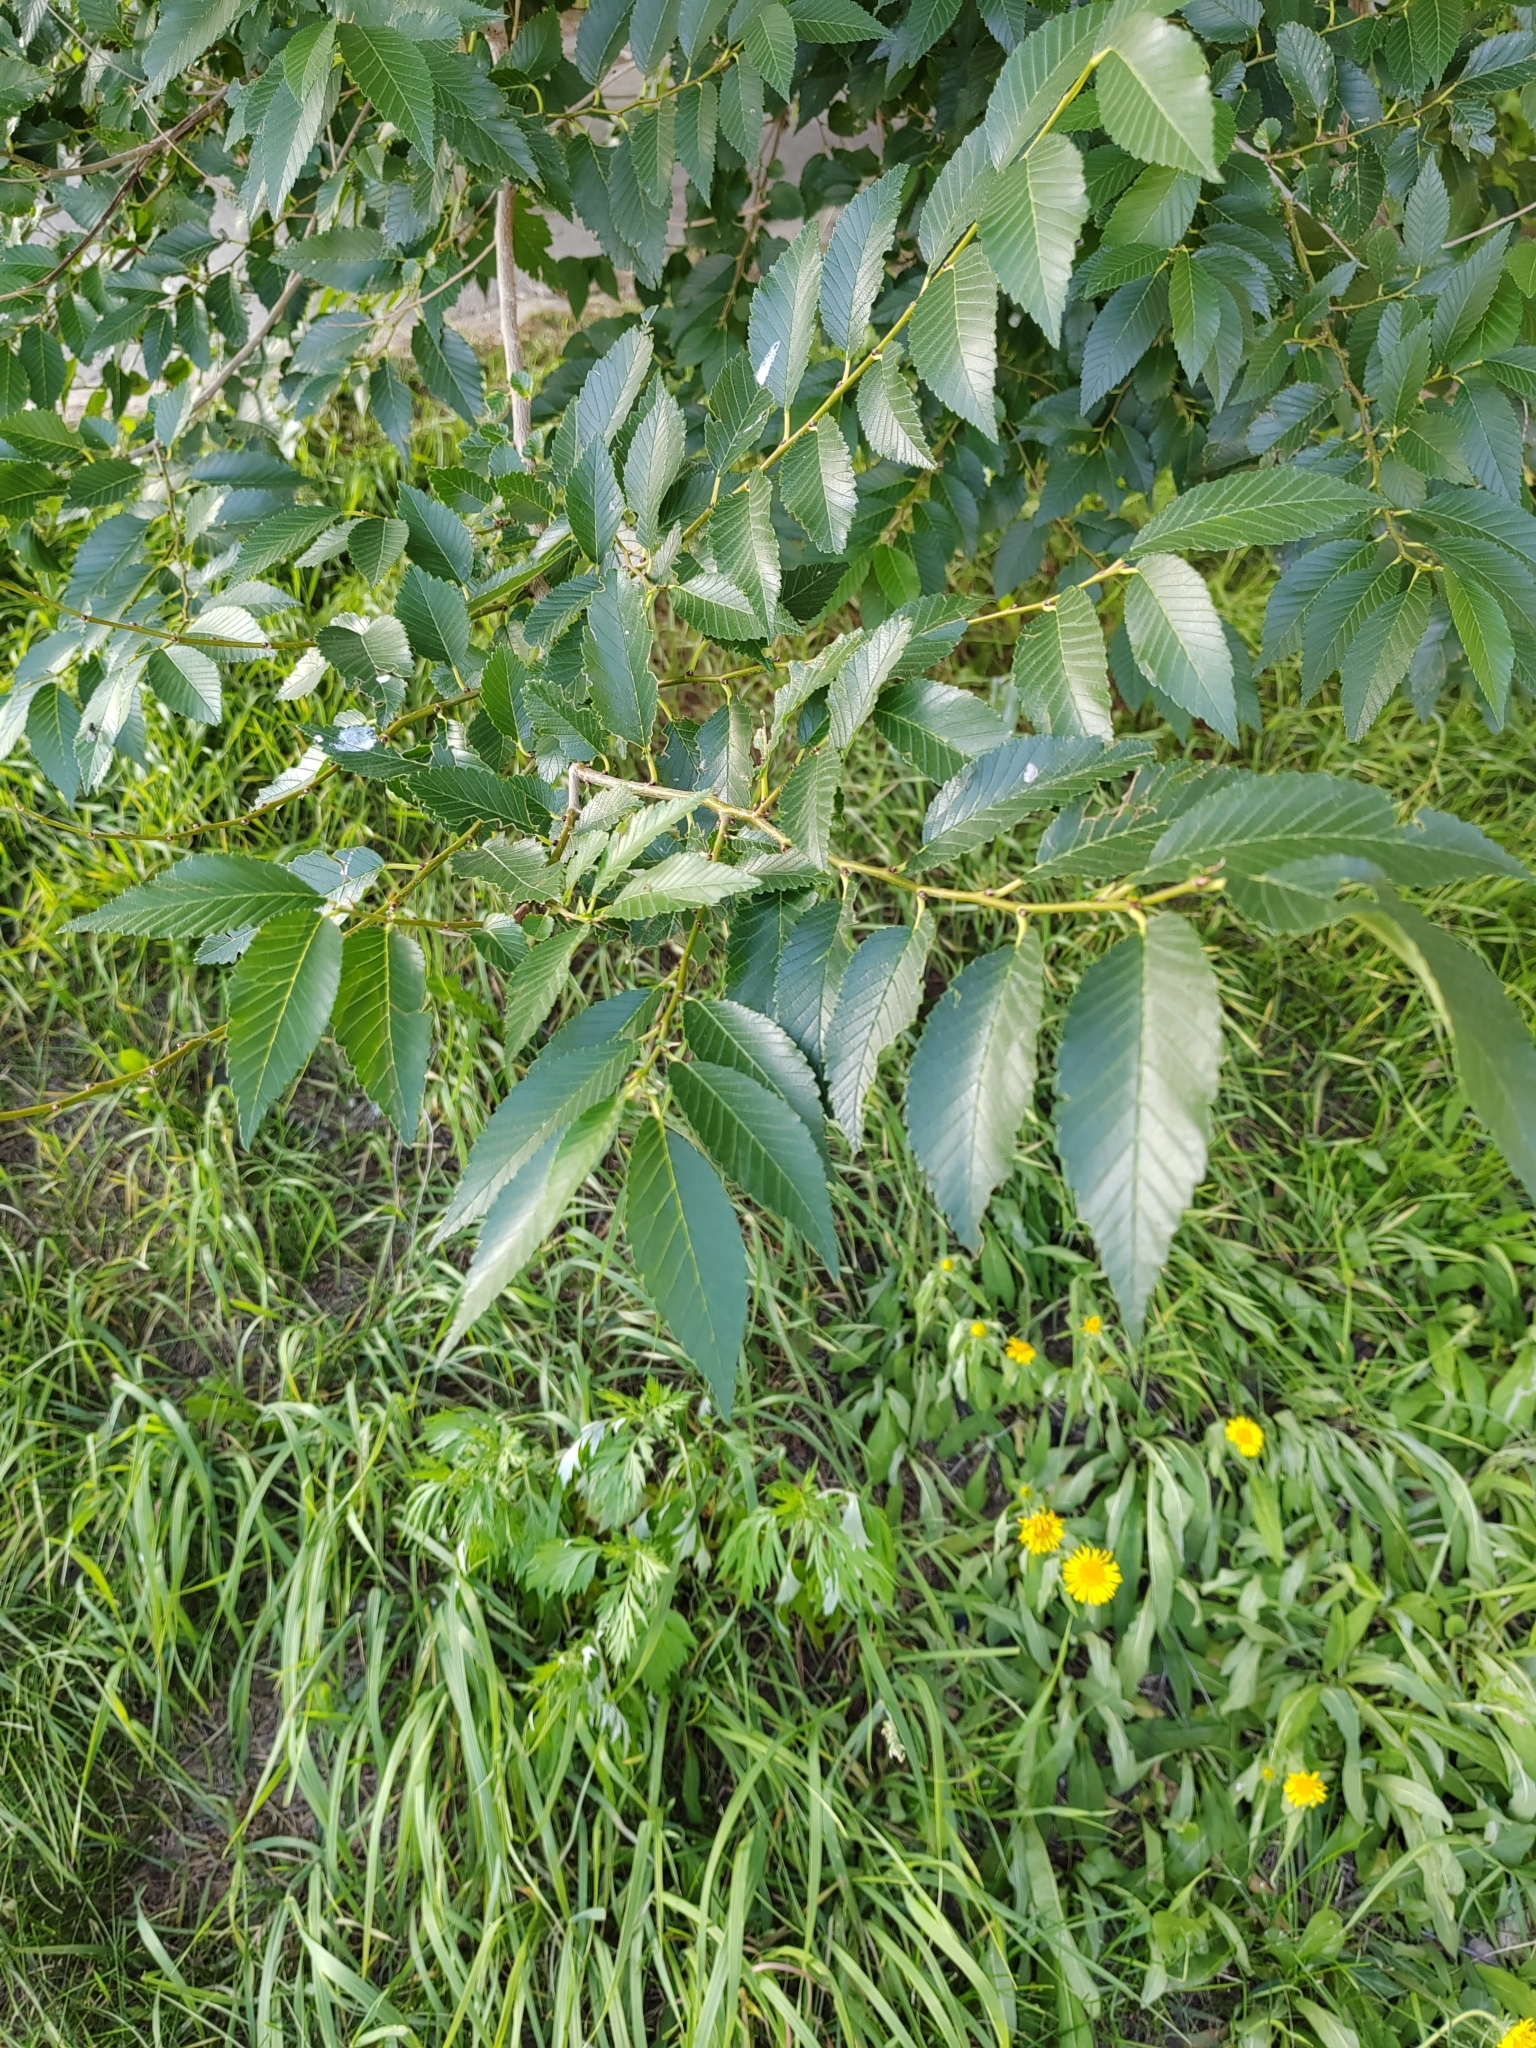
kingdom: Plantae
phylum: Tracheophyta
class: Magnoliopsida
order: Rosales
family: Ulmaceae
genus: Ulmus
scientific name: Ulmus pumila
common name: Siberian elm
